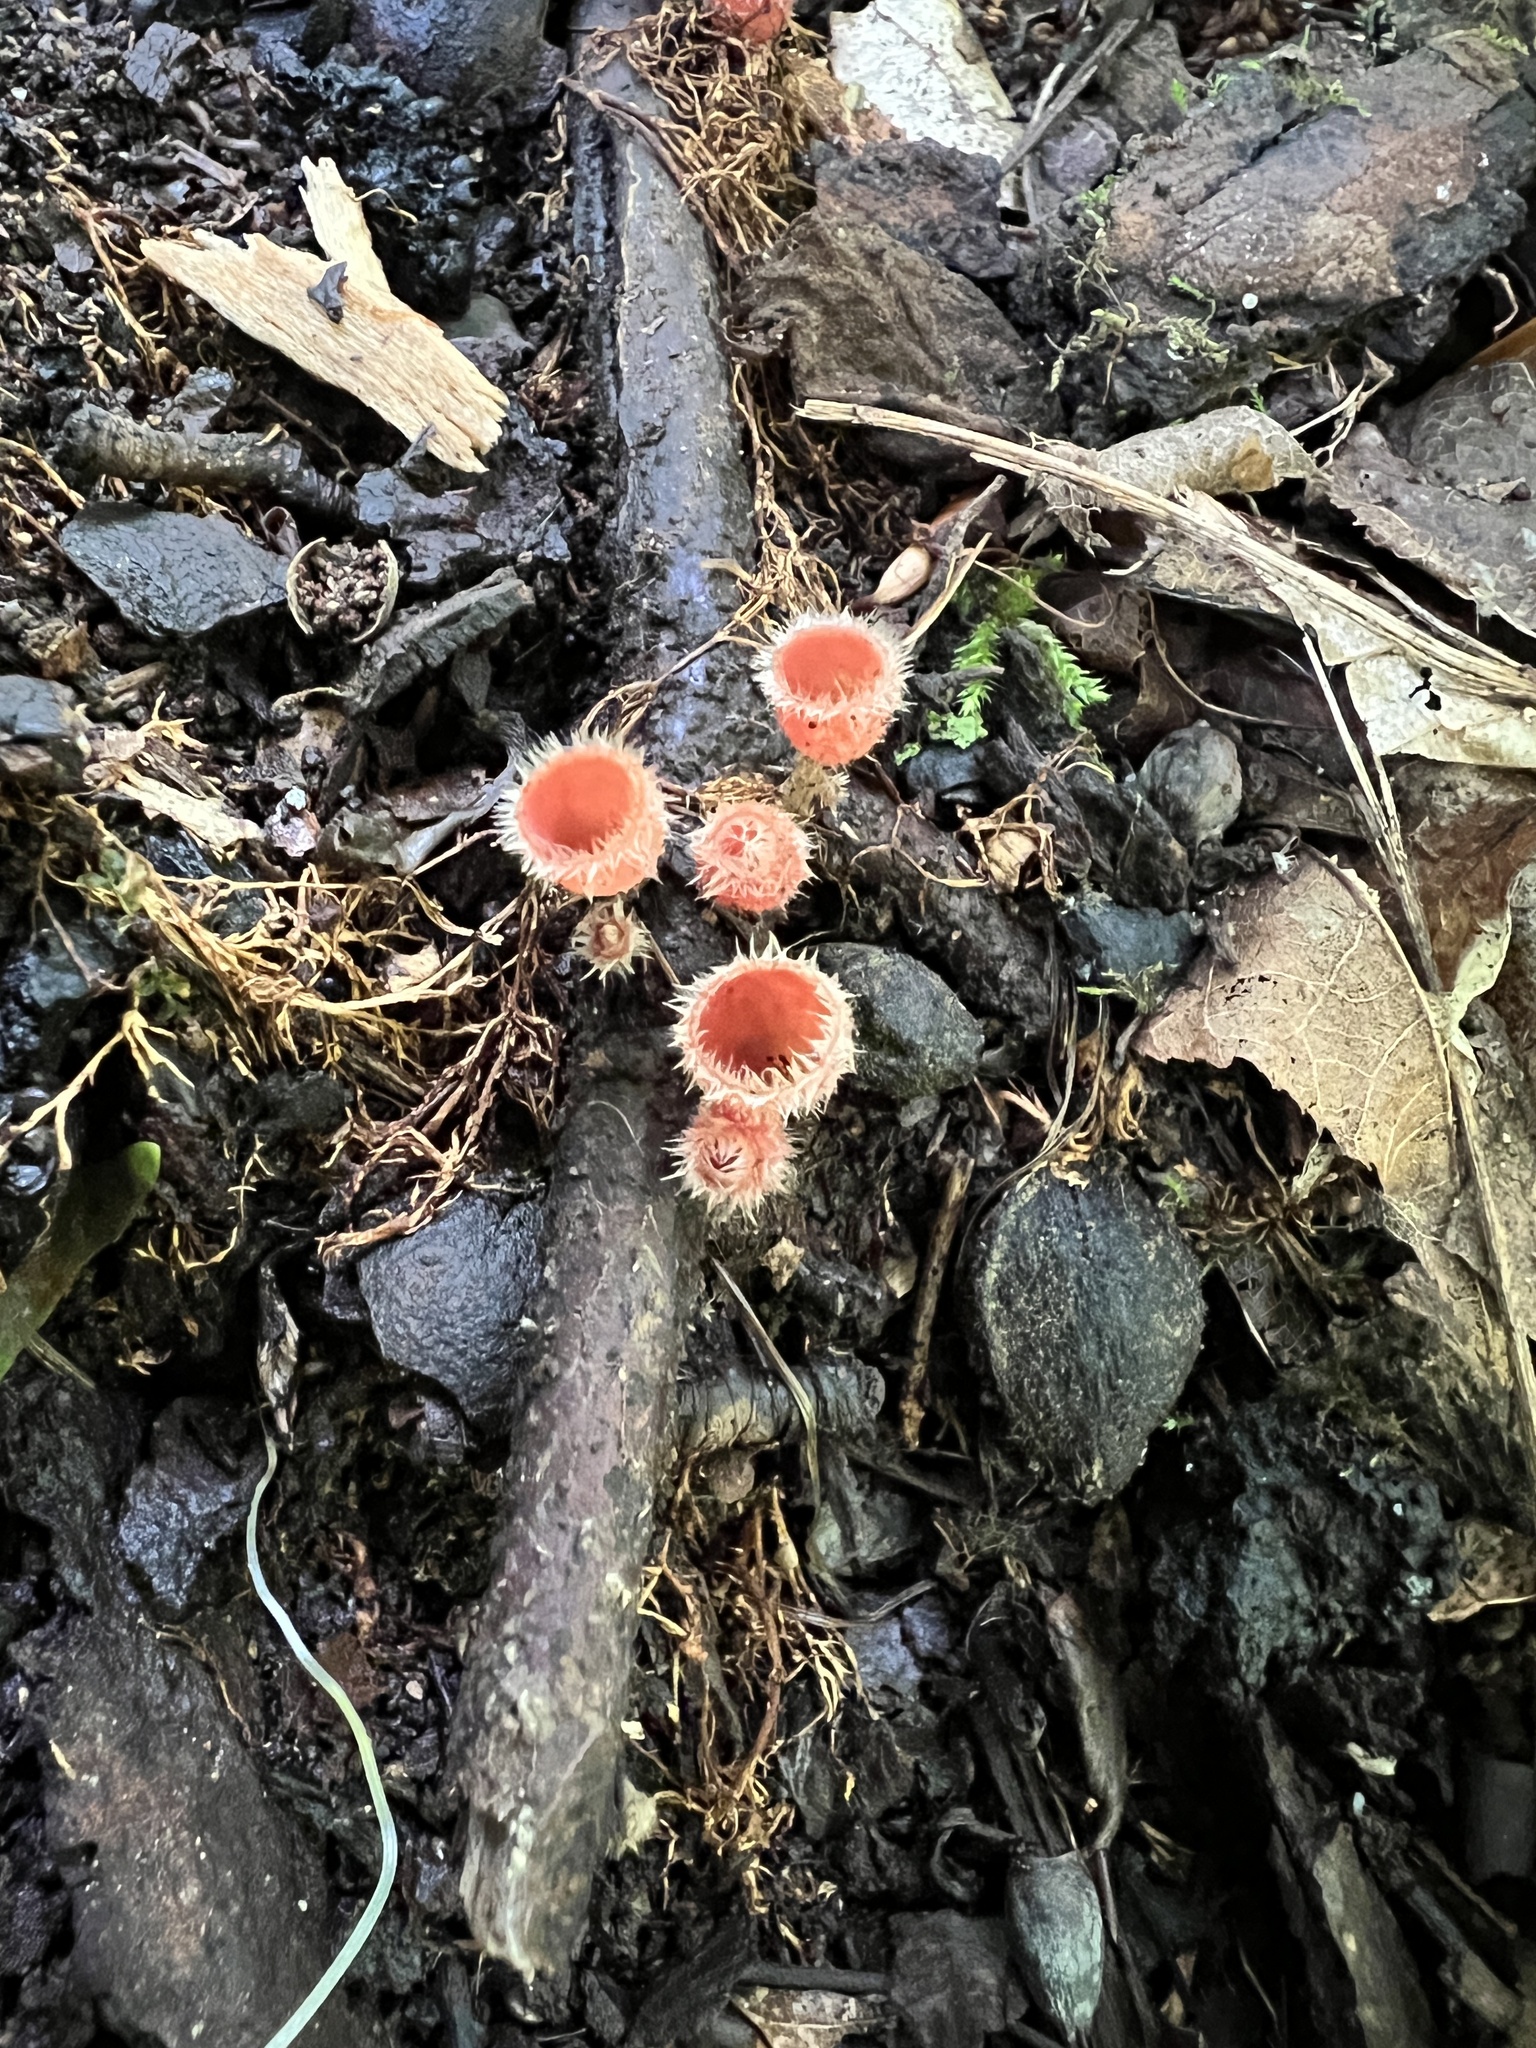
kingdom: Fungi
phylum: Ascomycota
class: Pezizomycetes
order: Pezizales
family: Sarcoscyphaceae
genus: Microstoma
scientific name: Microstoma floccosum
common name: Pink fringed faery cup
